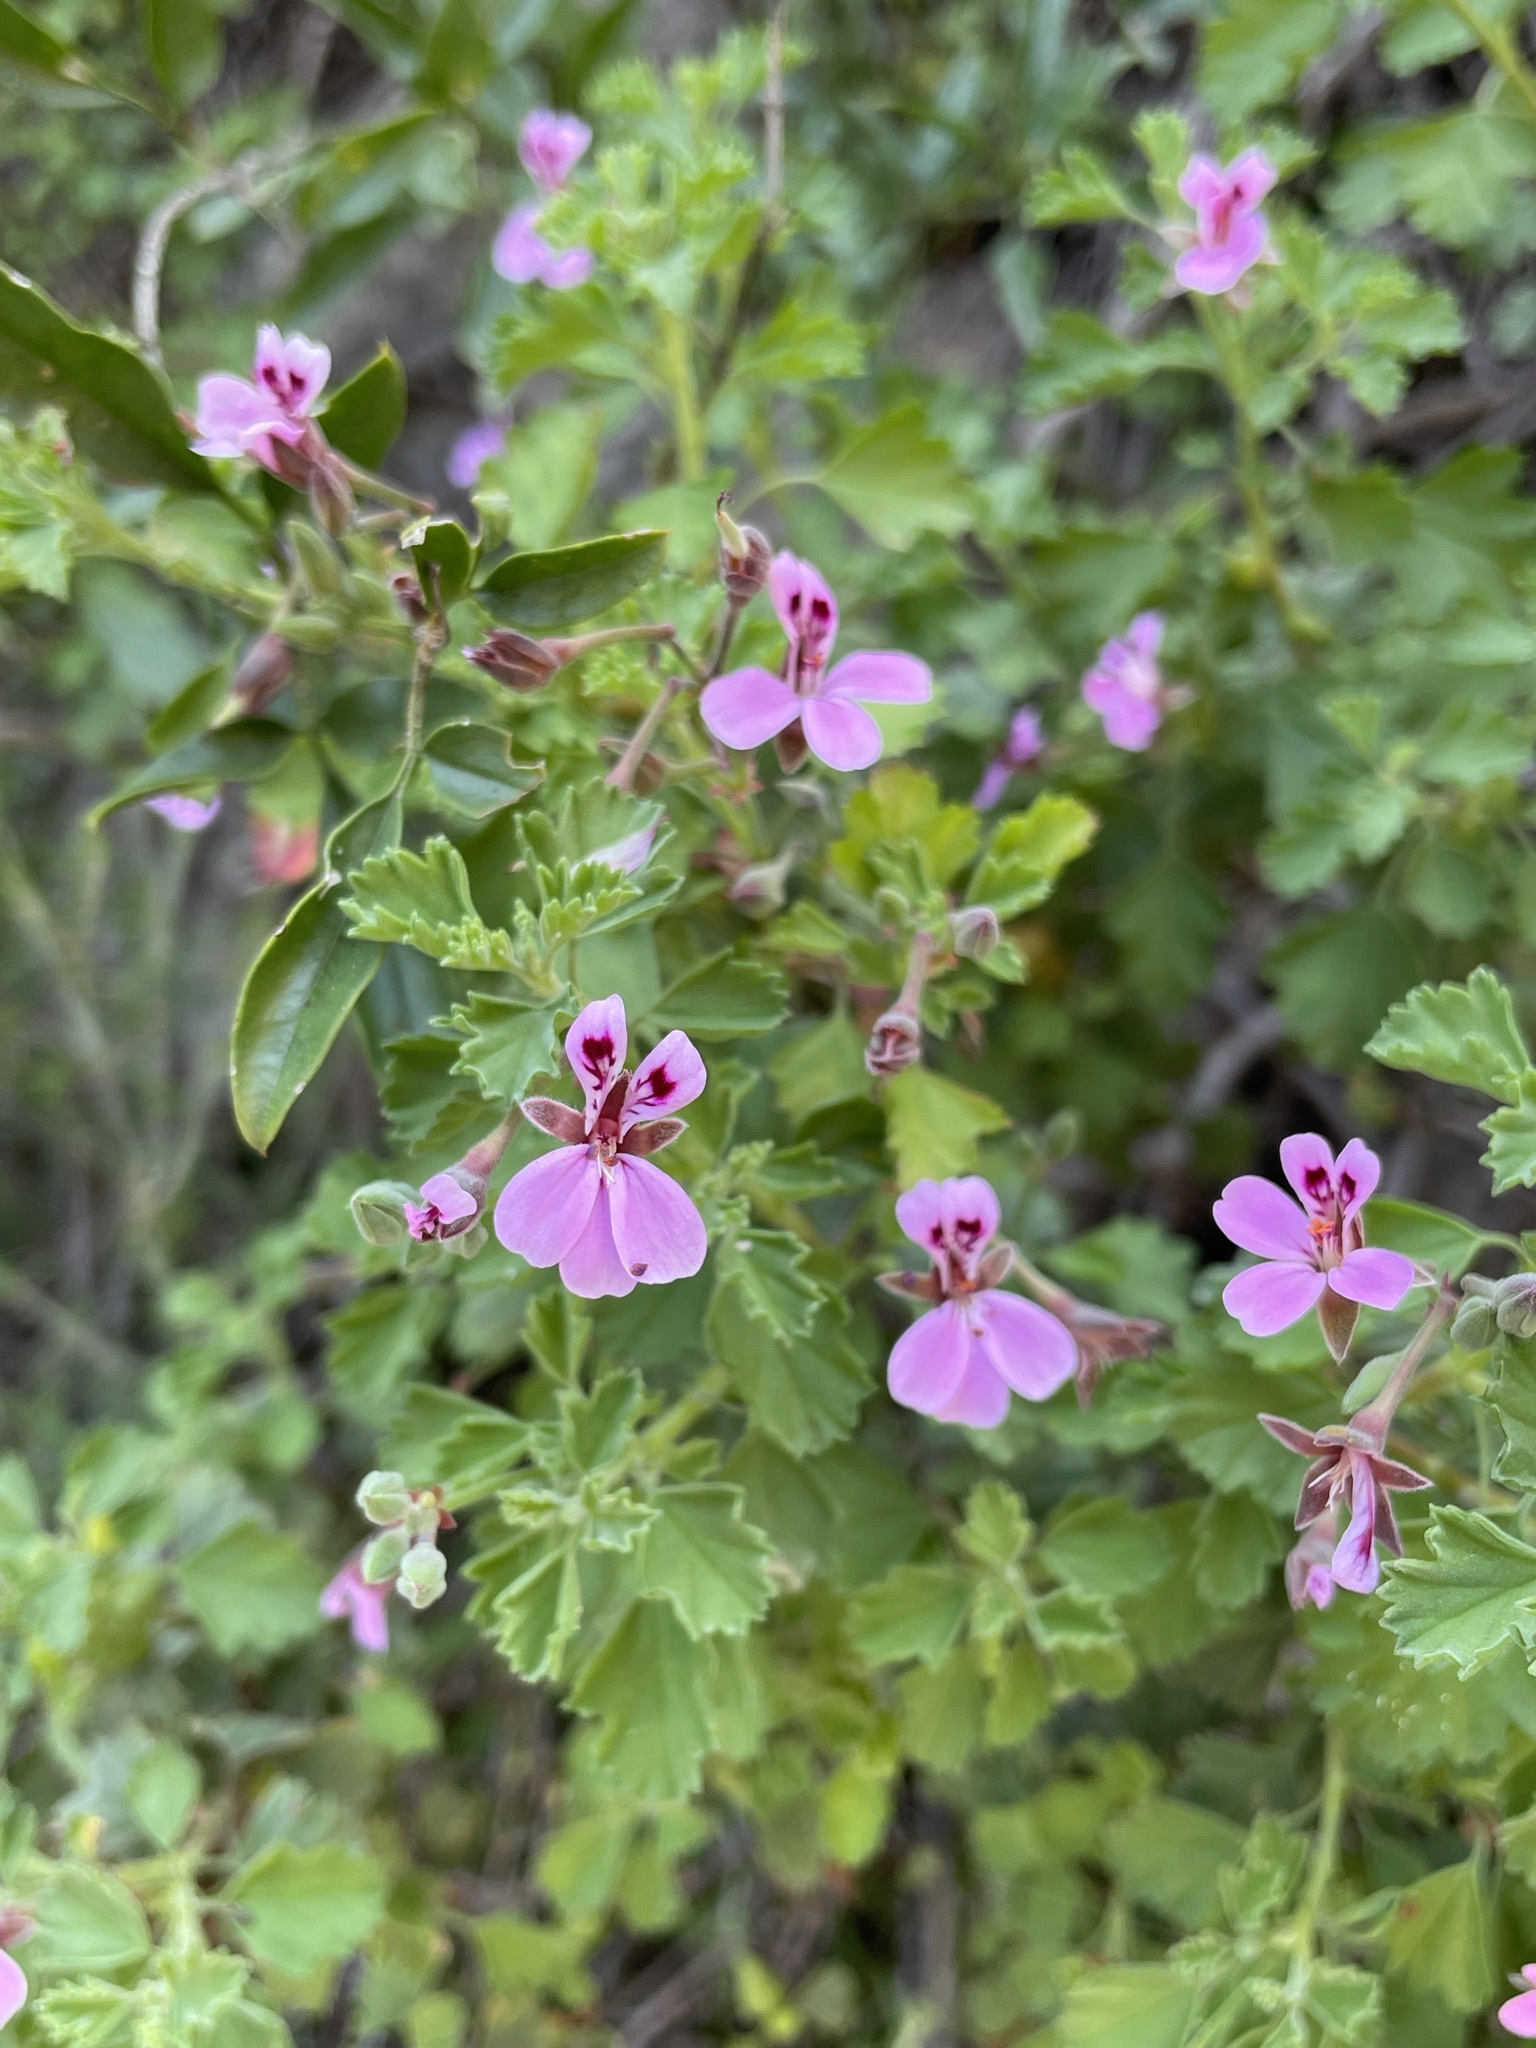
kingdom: Plantae
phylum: Tracheophyta
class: Magnoliopsida
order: Geraniales
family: Geraniaceae
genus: Pelargonium
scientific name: Pelargonium exstipulatum
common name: Soft-leaf trifid pelargonium
